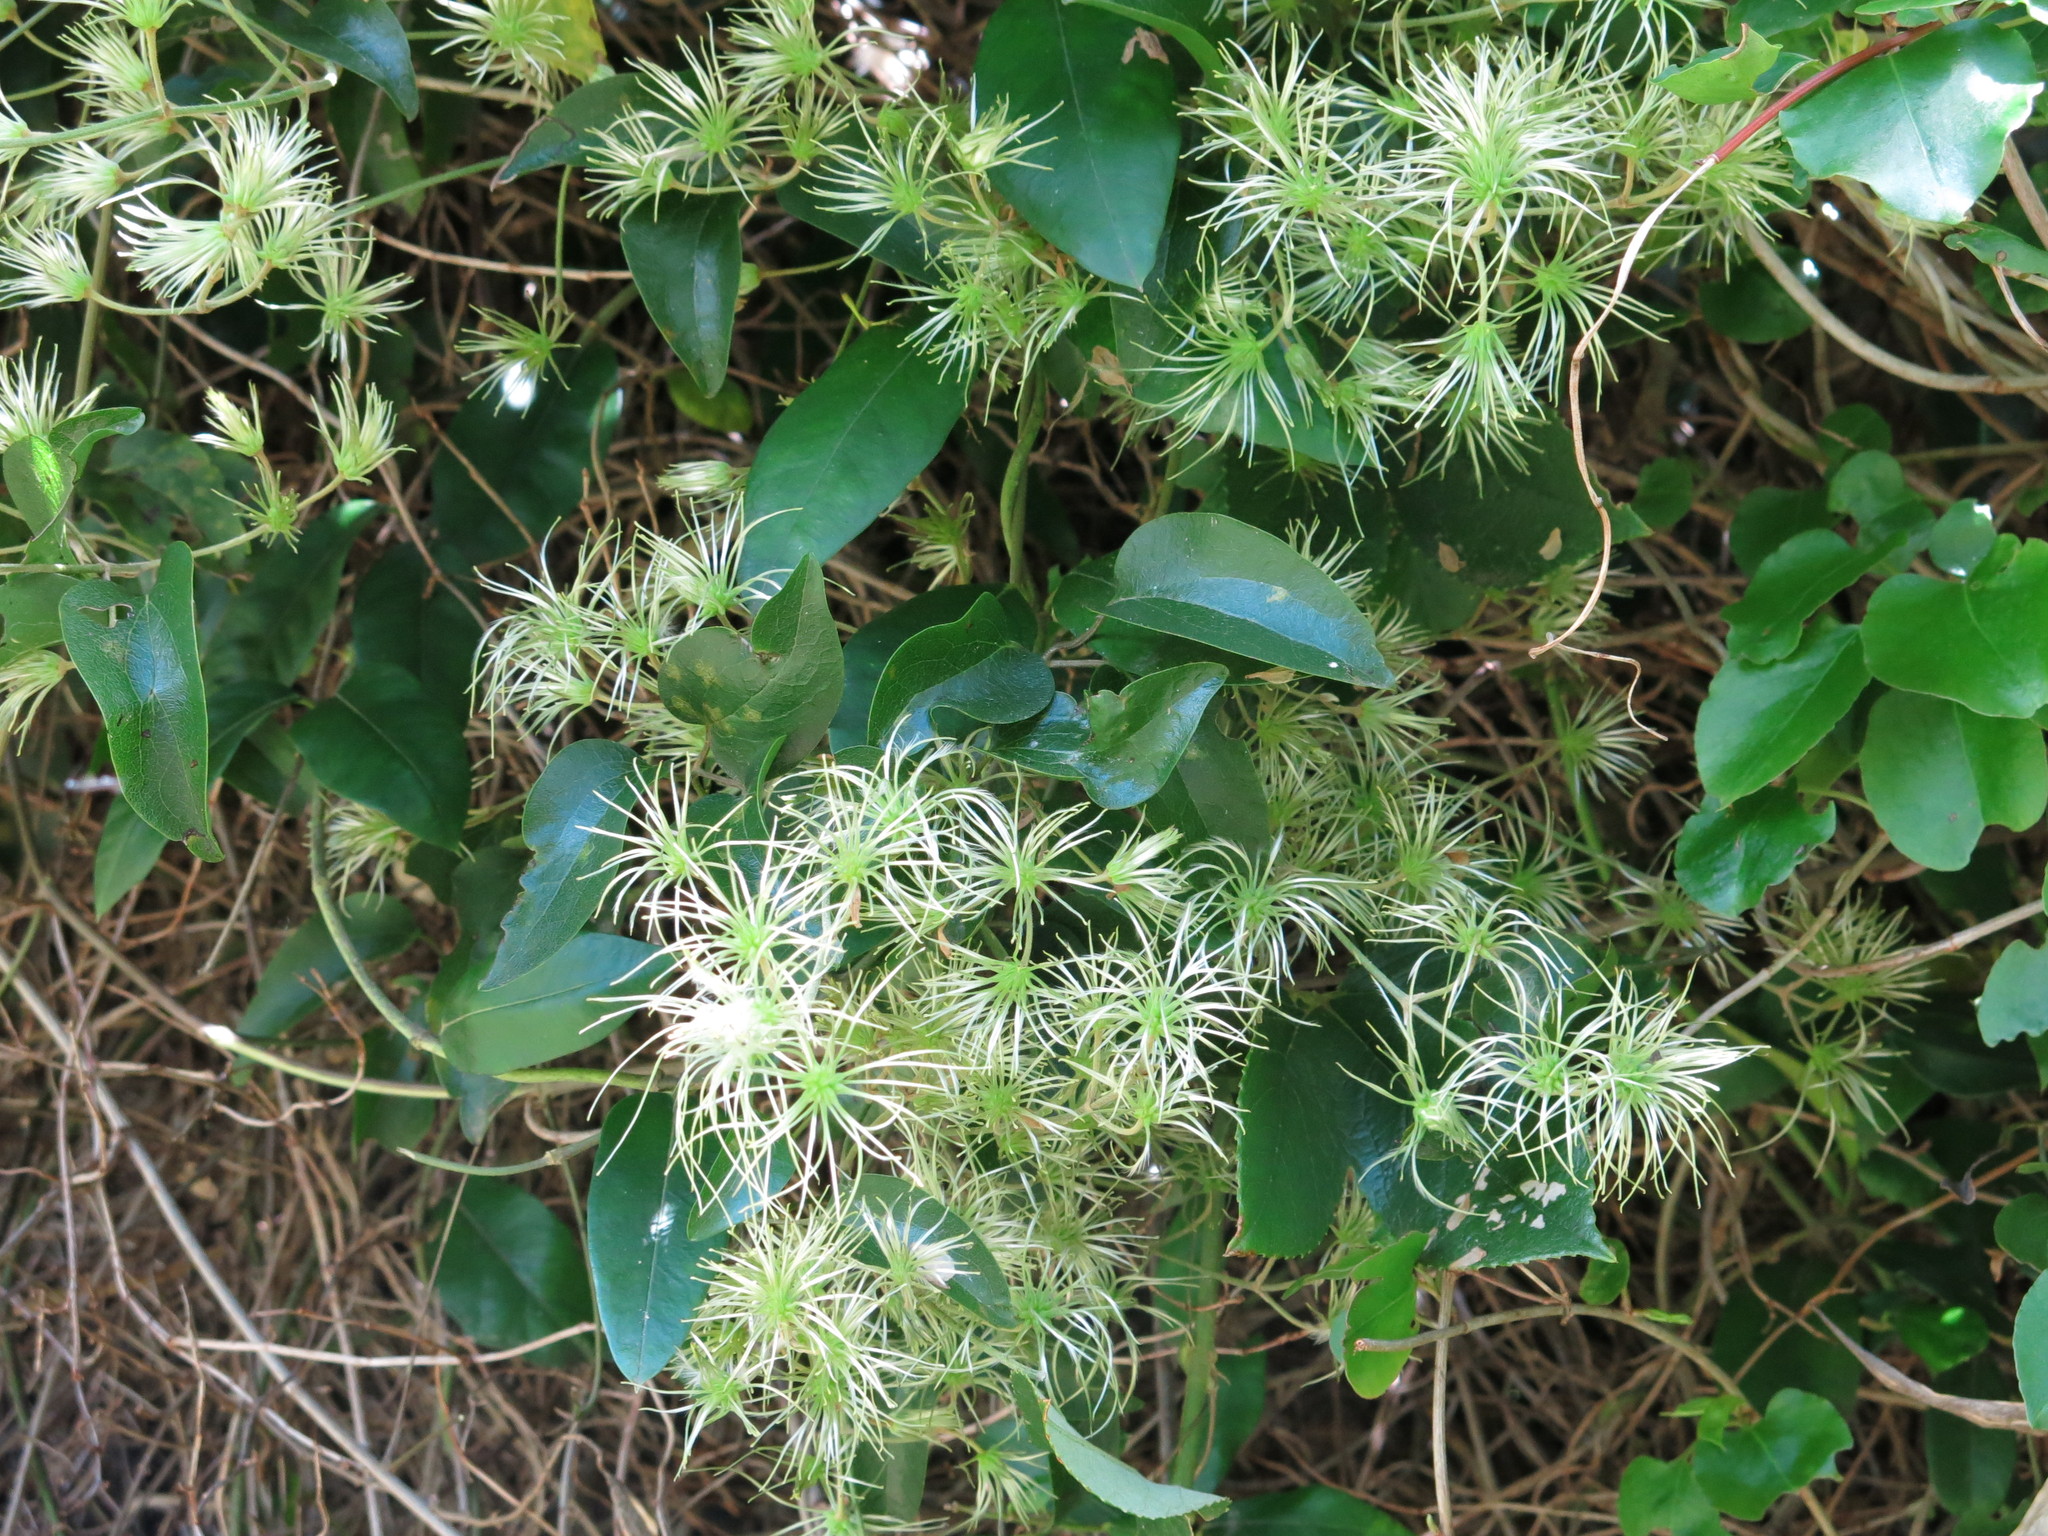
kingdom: Plantae
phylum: Tracheophyta
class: Magnoliopsida
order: Ranunculales
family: Ranunculaceae
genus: Clematis
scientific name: Clematis foetida
